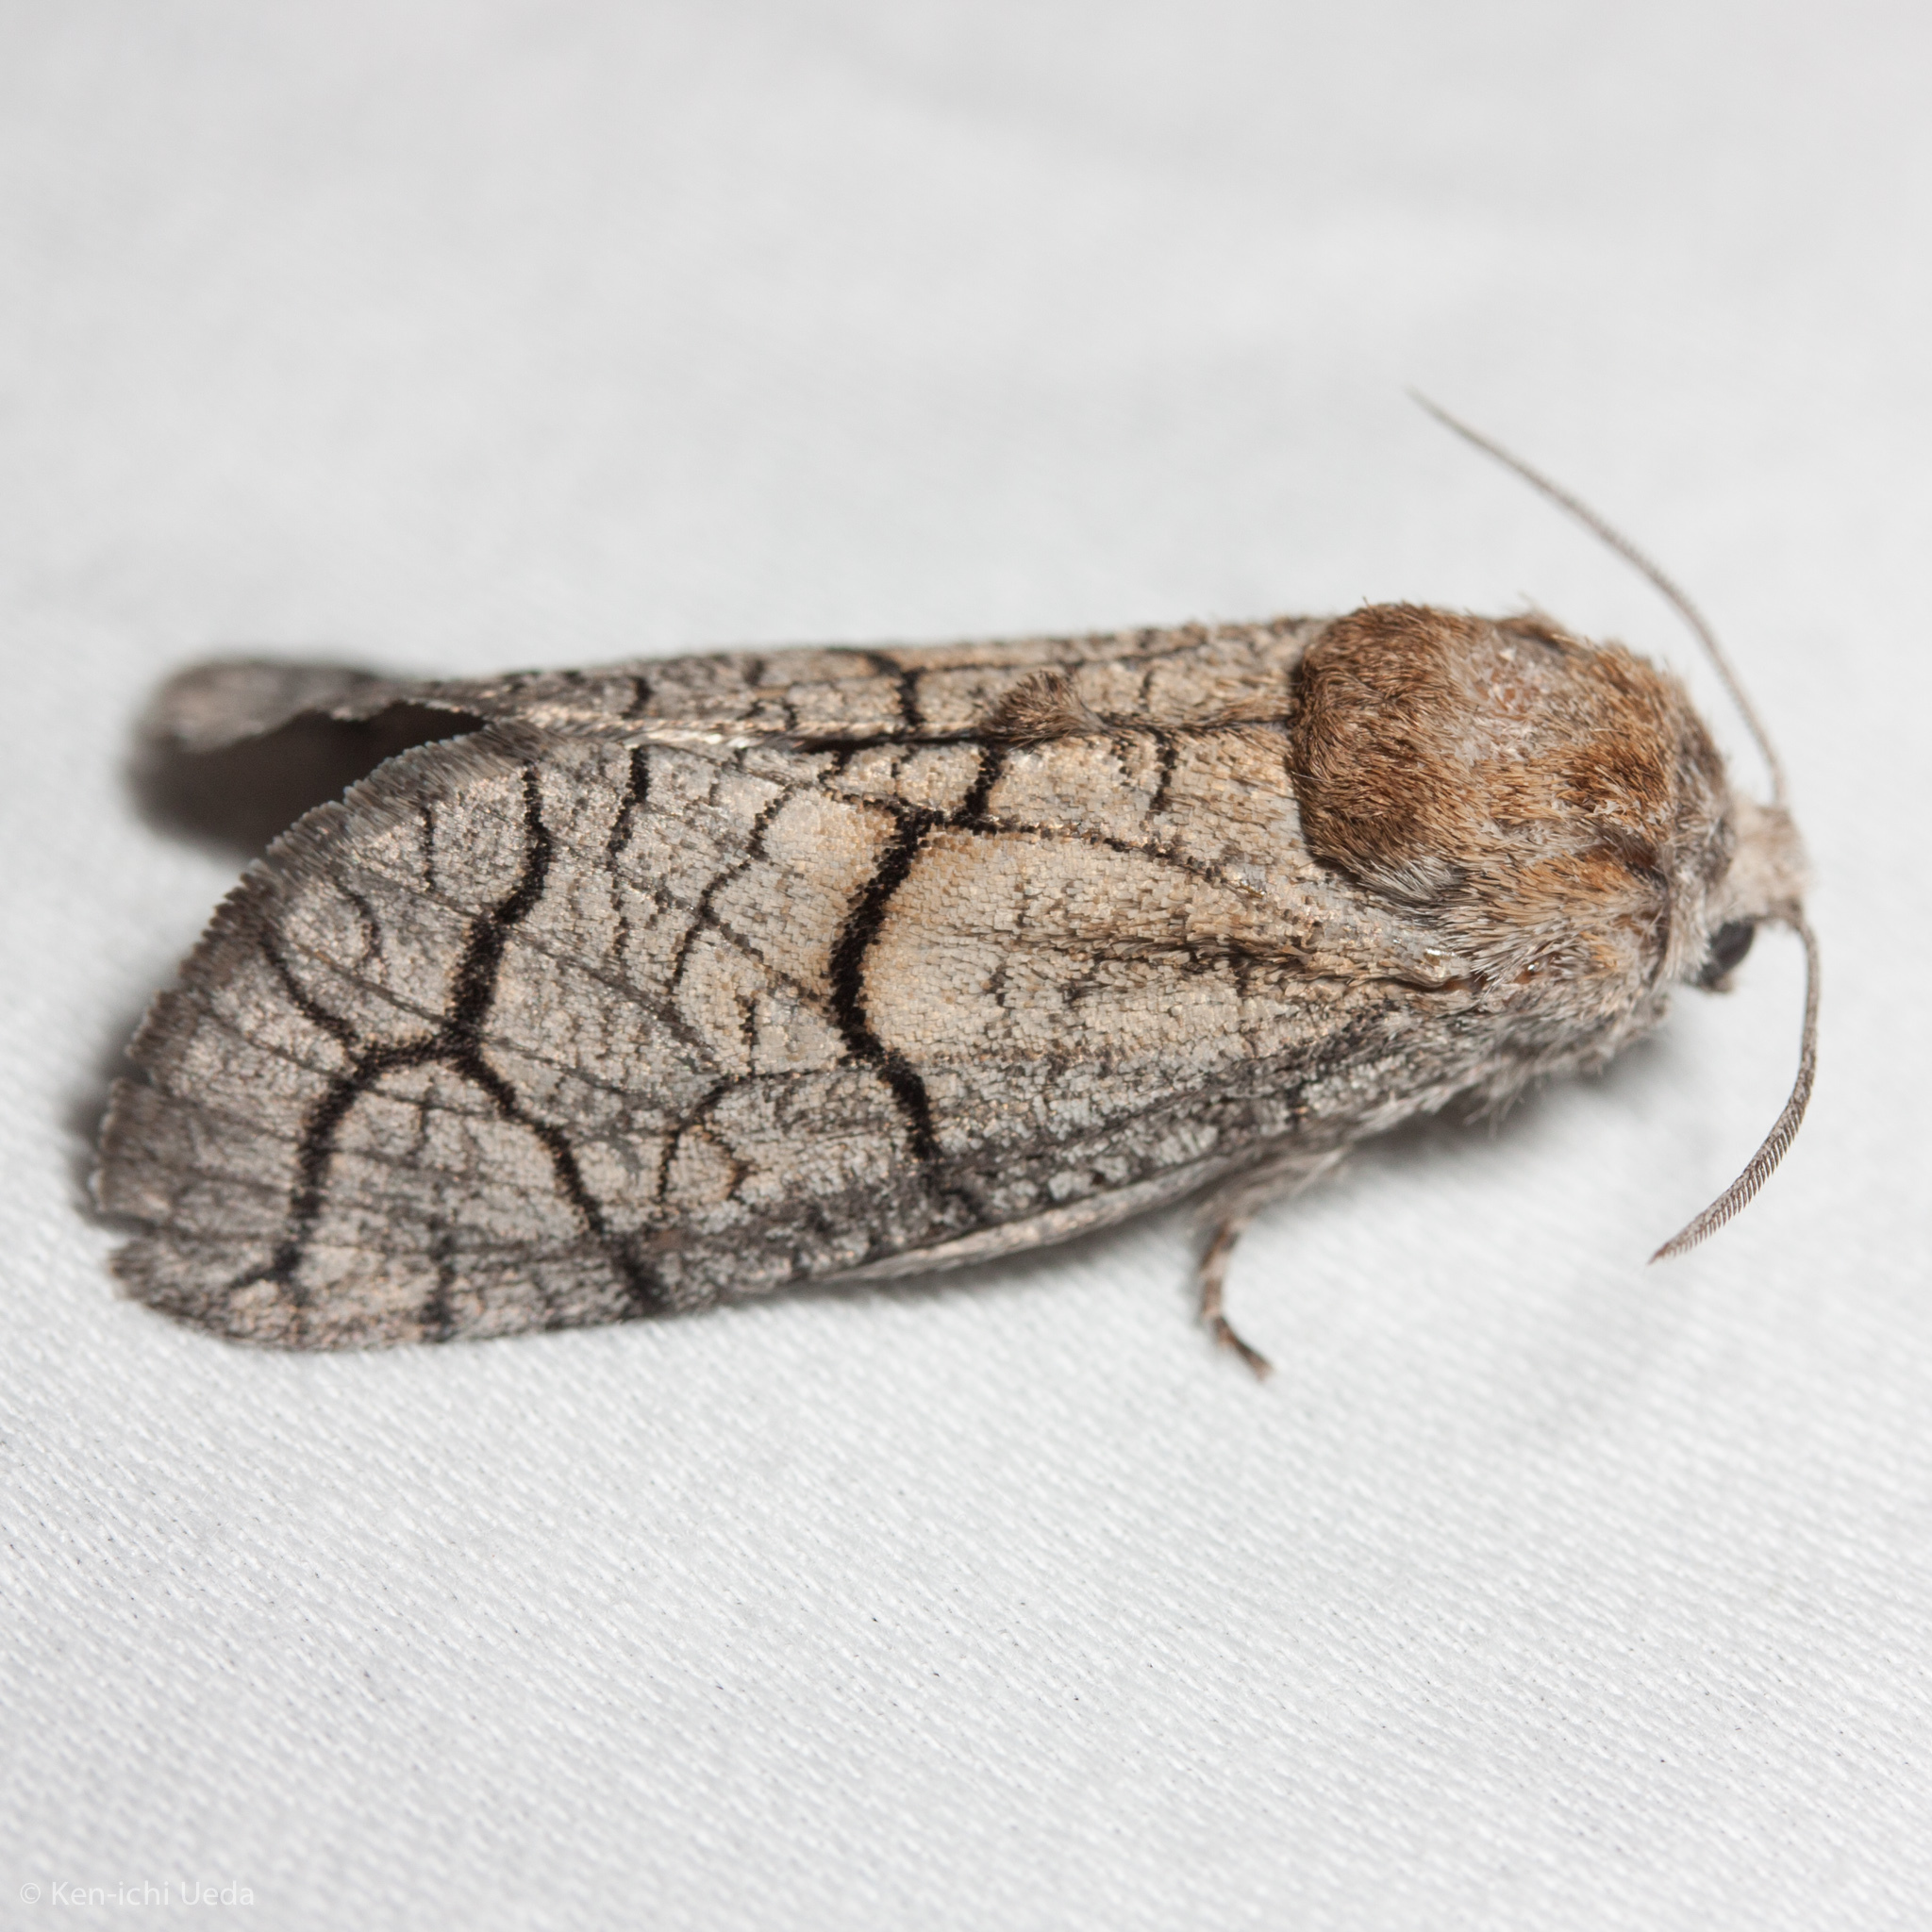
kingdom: Animalia
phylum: Arthropoda
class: Insecta
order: Lepidoptera
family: Cossidae
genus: Toronia
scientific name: Toronia
